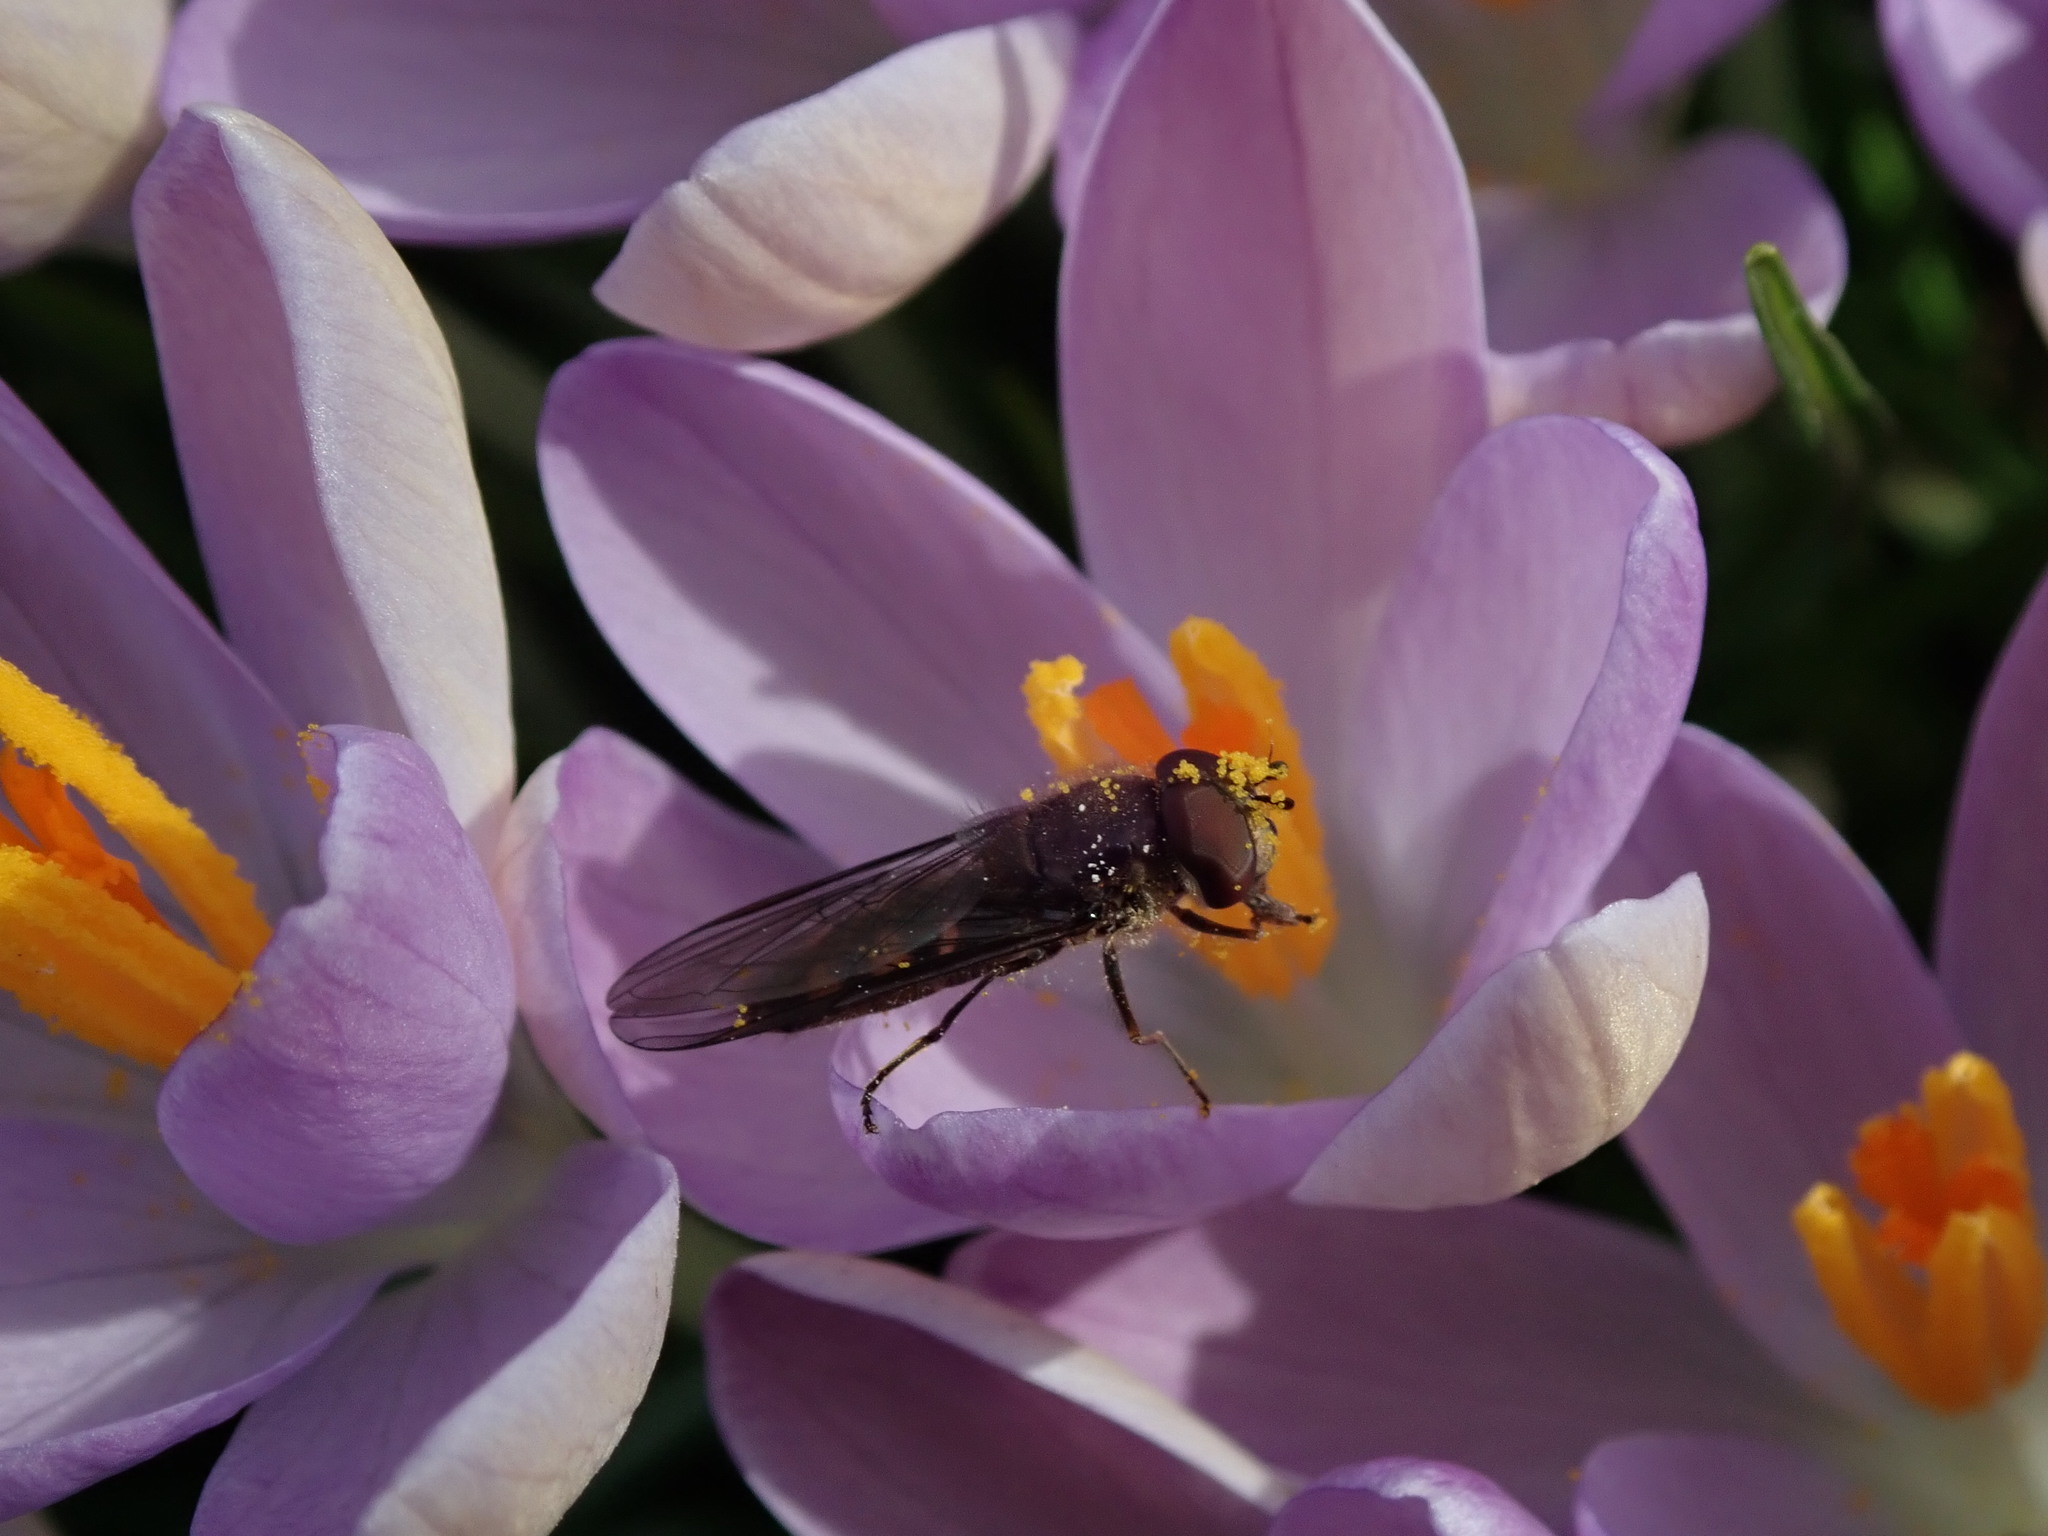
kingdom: Animalia
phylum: Arthropoda
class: Insecta
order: Diptera
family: Syrphidae
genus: Meliscaeva
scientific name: Meliscaeva auricollis
